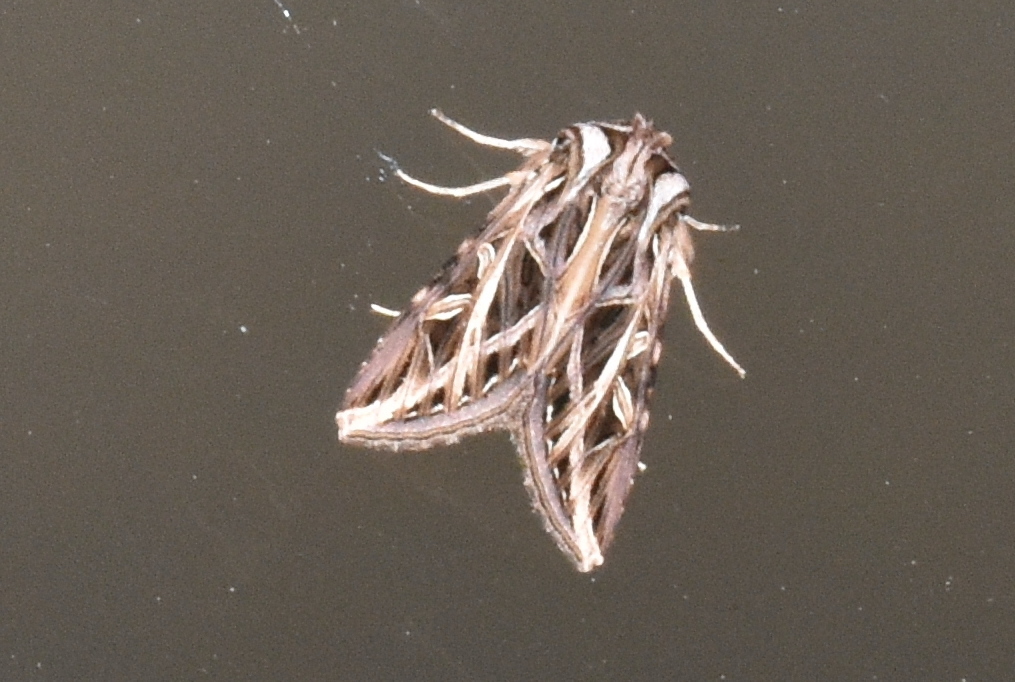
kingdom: Animalia
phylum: Arthropoda
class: Insecta
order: Lepidoptera
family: Noctuidae
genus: Dargida
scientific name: Dargida procinctus
